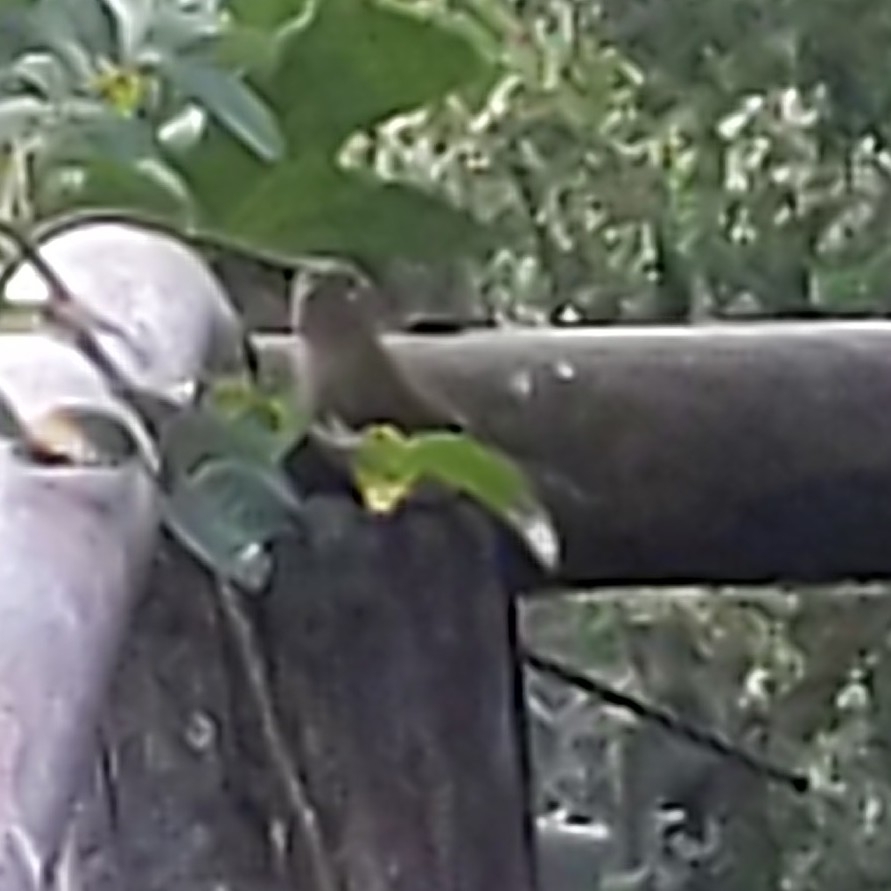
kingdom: Animalia
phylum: Chordata
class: Aves
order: Passeriformes
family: Troglodytidae
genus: Troglodytes
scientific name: Troglodytes aedon
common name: House wren
